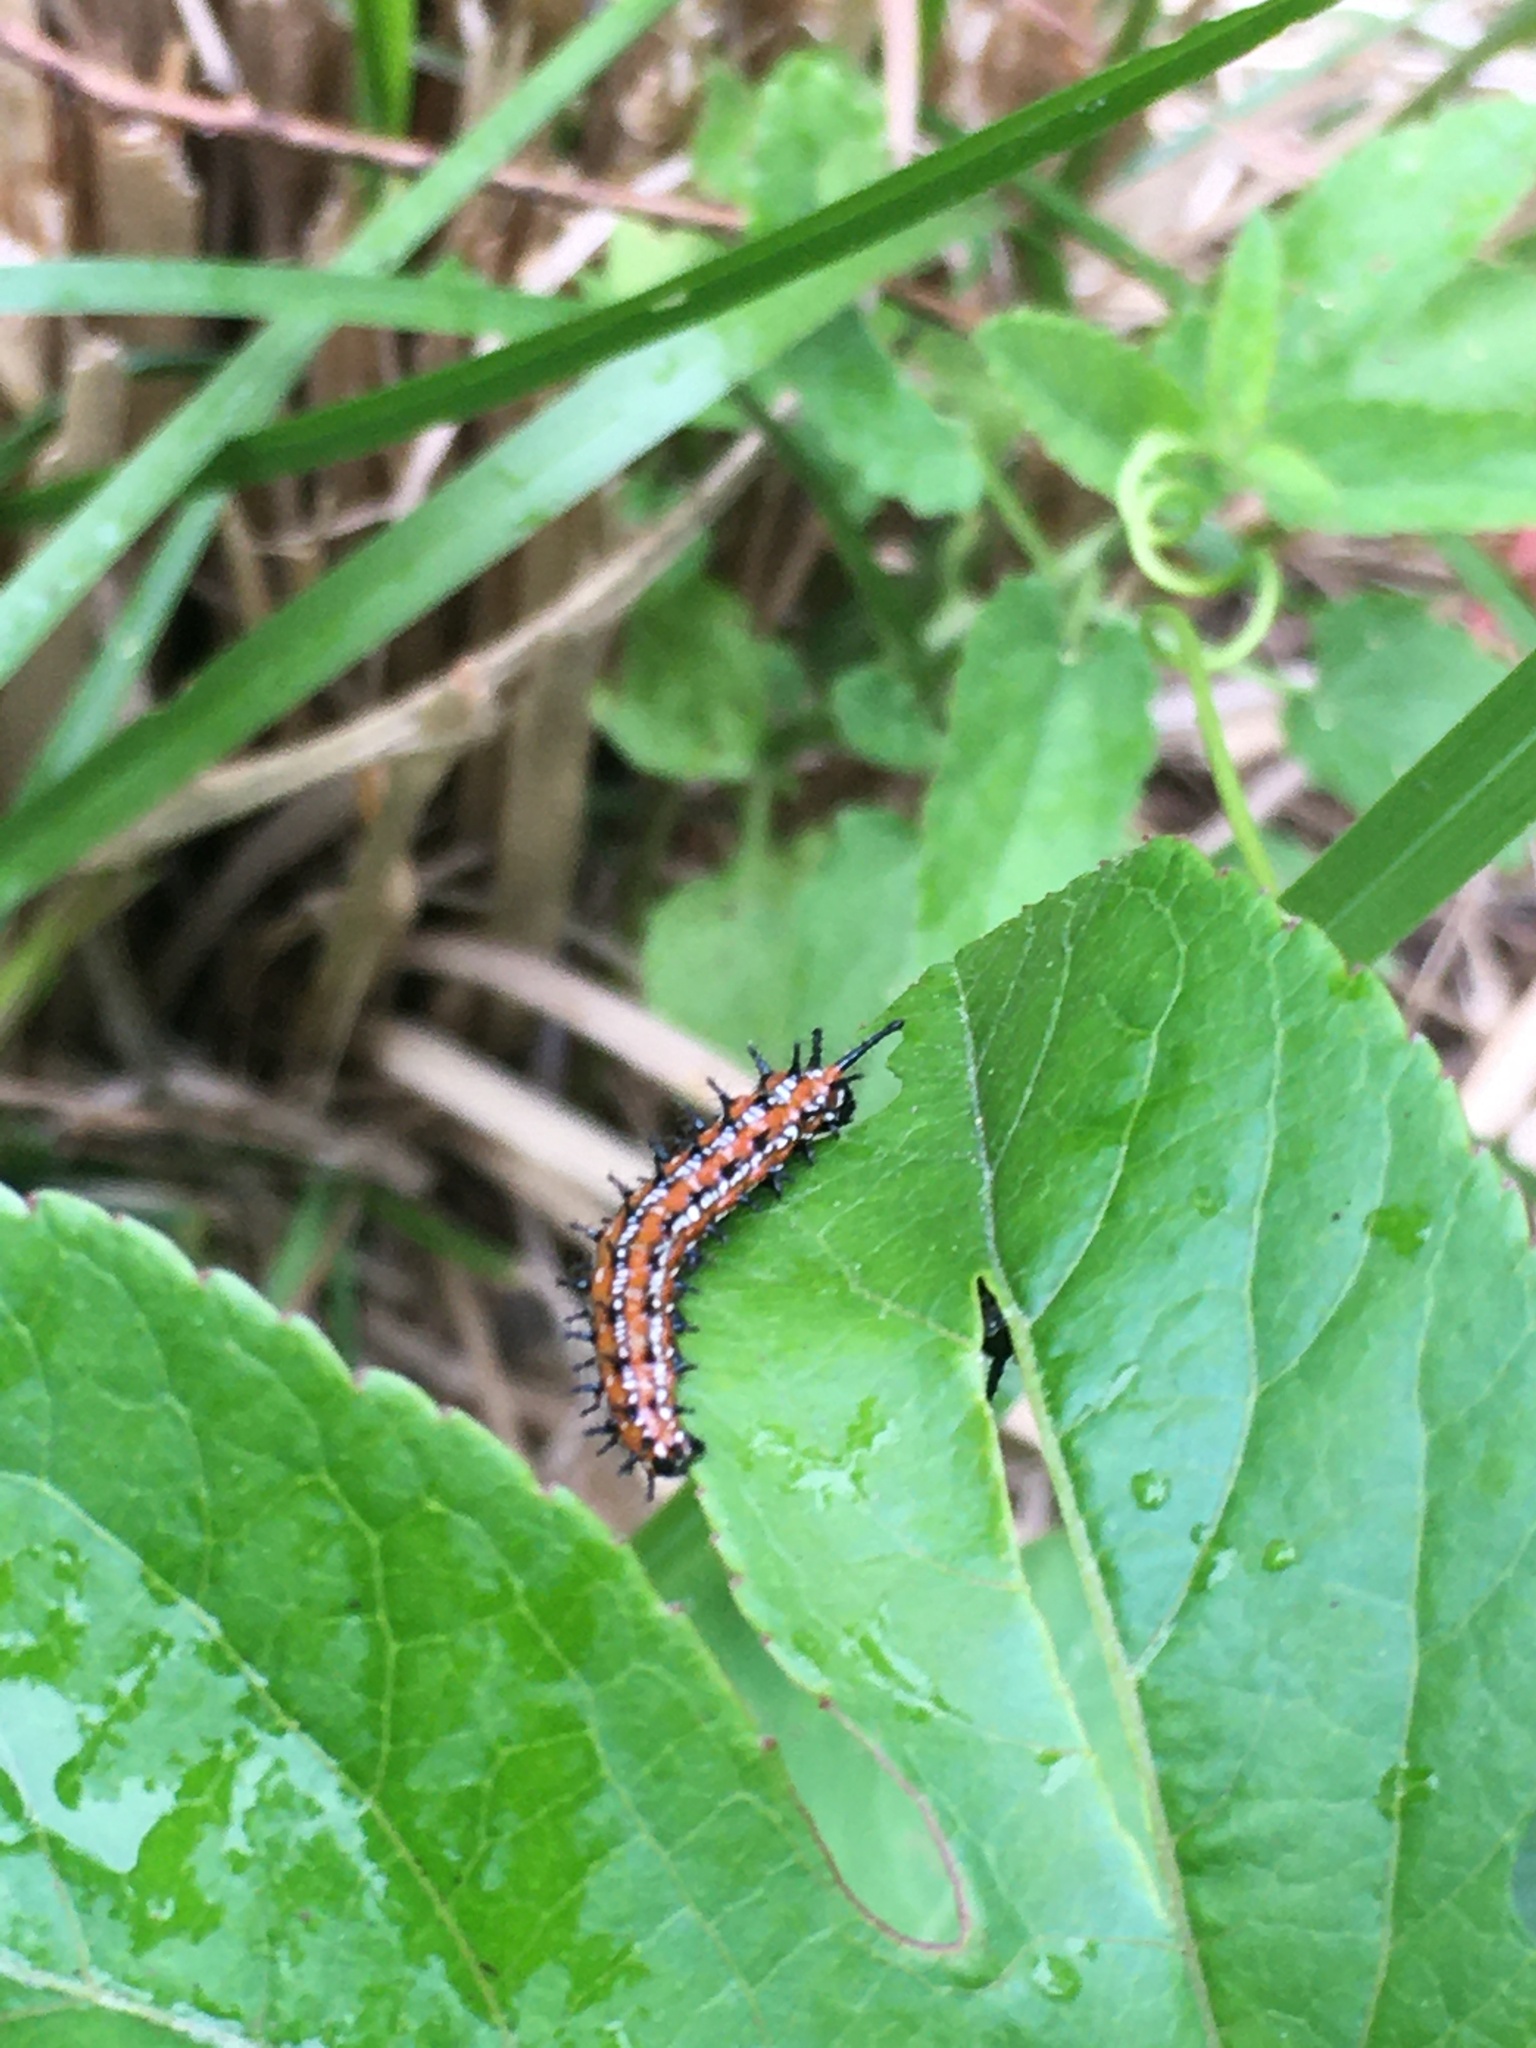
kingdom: Animalia
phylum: Arthropoda
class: Insecta
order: Lepidoptera
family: Nymphalidae
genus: Euptoieta
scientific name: Euptoieta claudia
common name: Variegated fritillary
